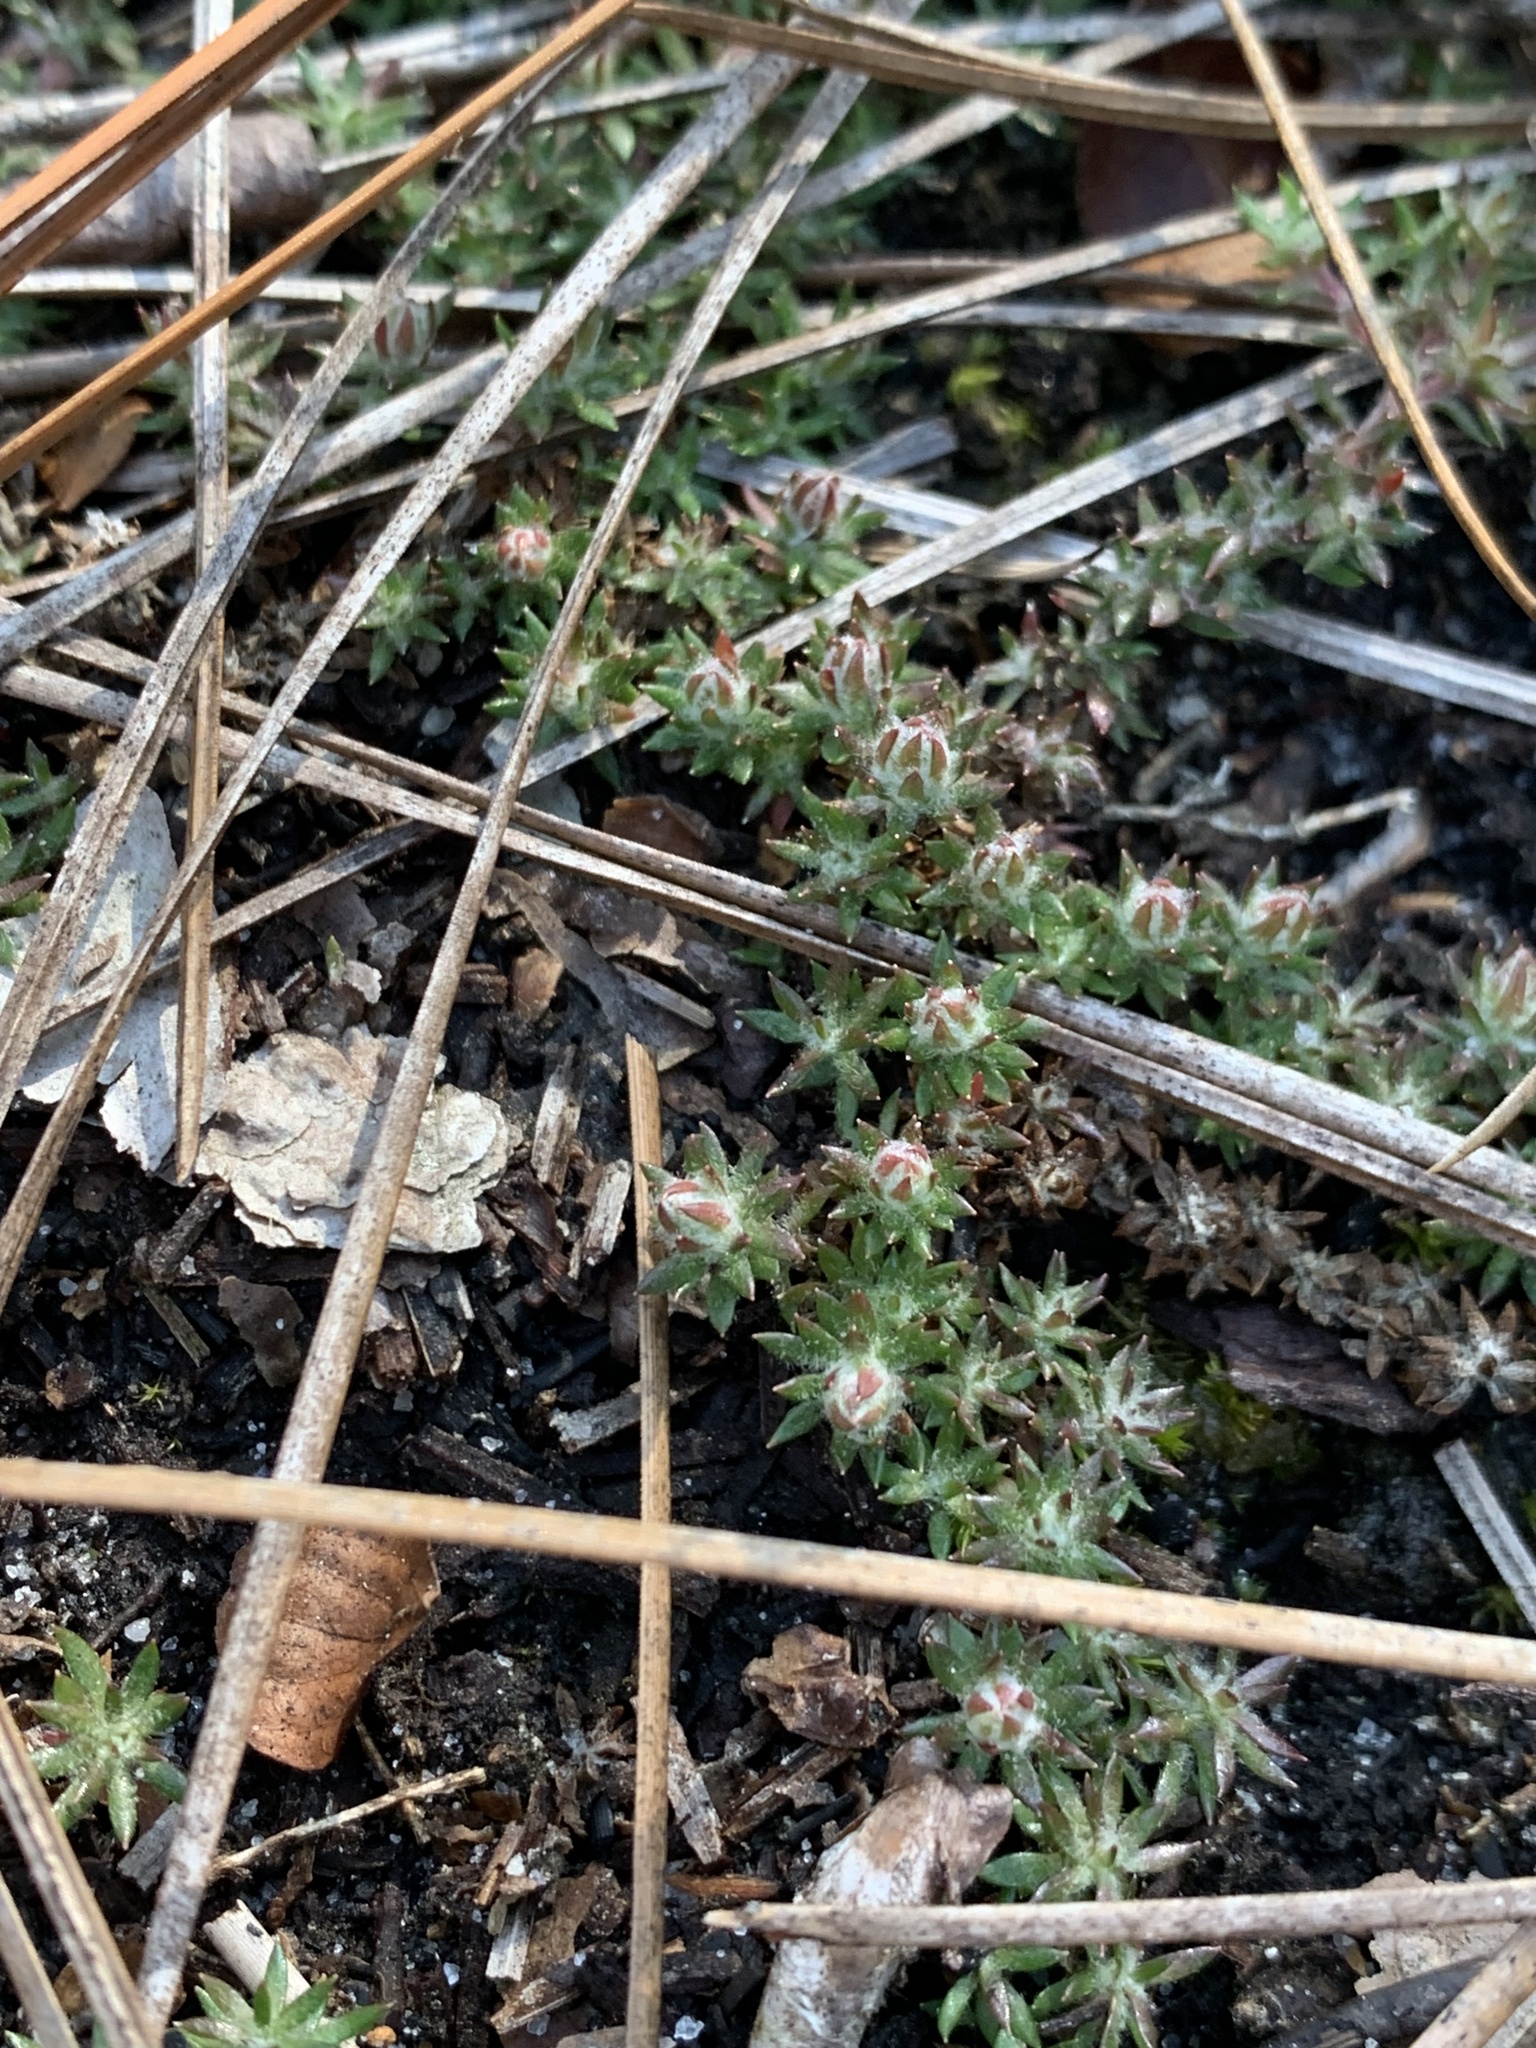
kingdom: Plantae
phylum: Tracheophyta
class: Magnoliopsida
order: Ericales
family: Diapensiaceae
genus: Pyxidanthera
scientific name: Pyxidanthera brevifolia
